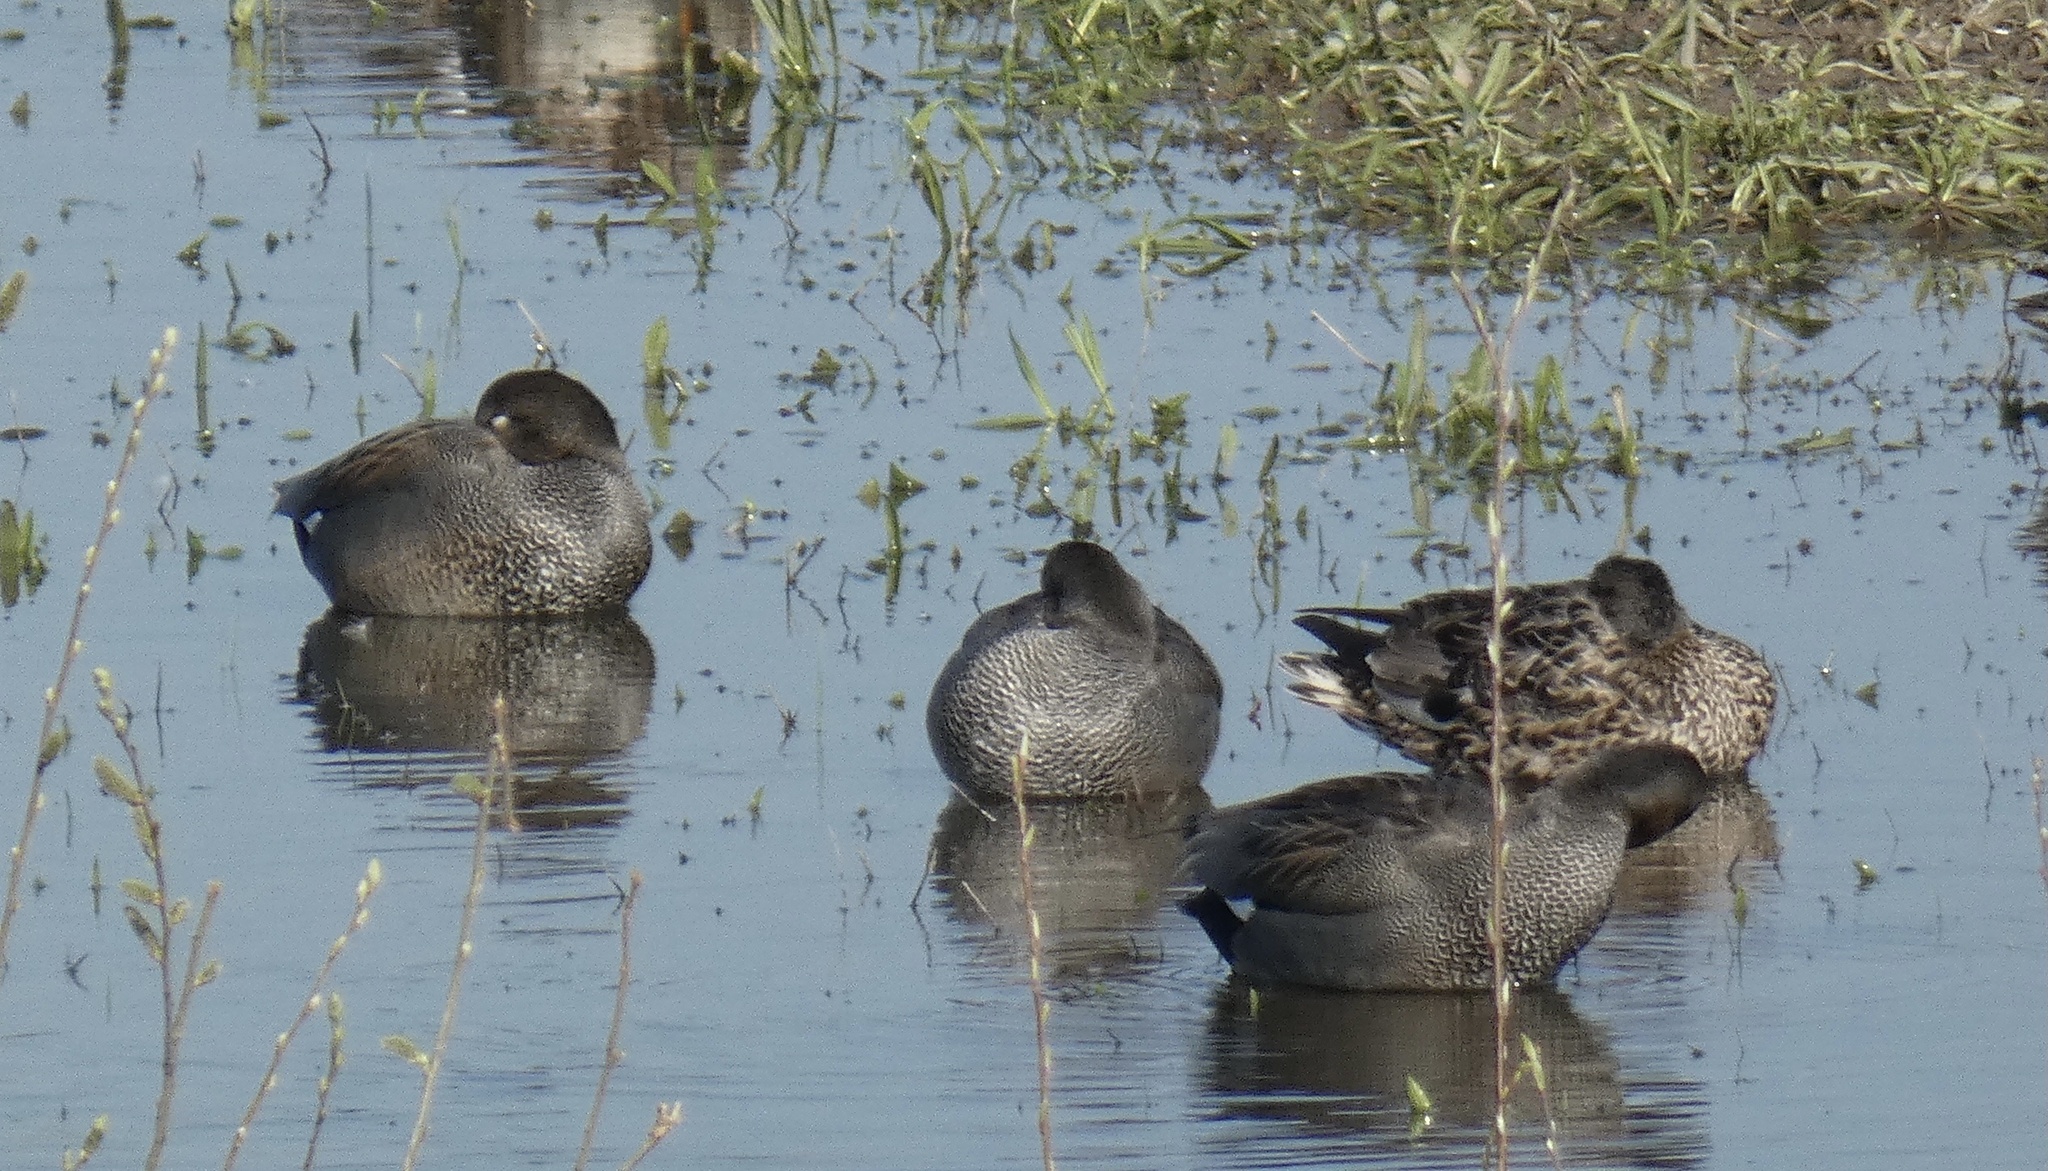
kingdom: Animalia
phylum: Chordata
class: Aves
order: Anseriformes
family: Anatidae
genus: Mareca
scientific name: Mareca strepera
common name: Gadwall
